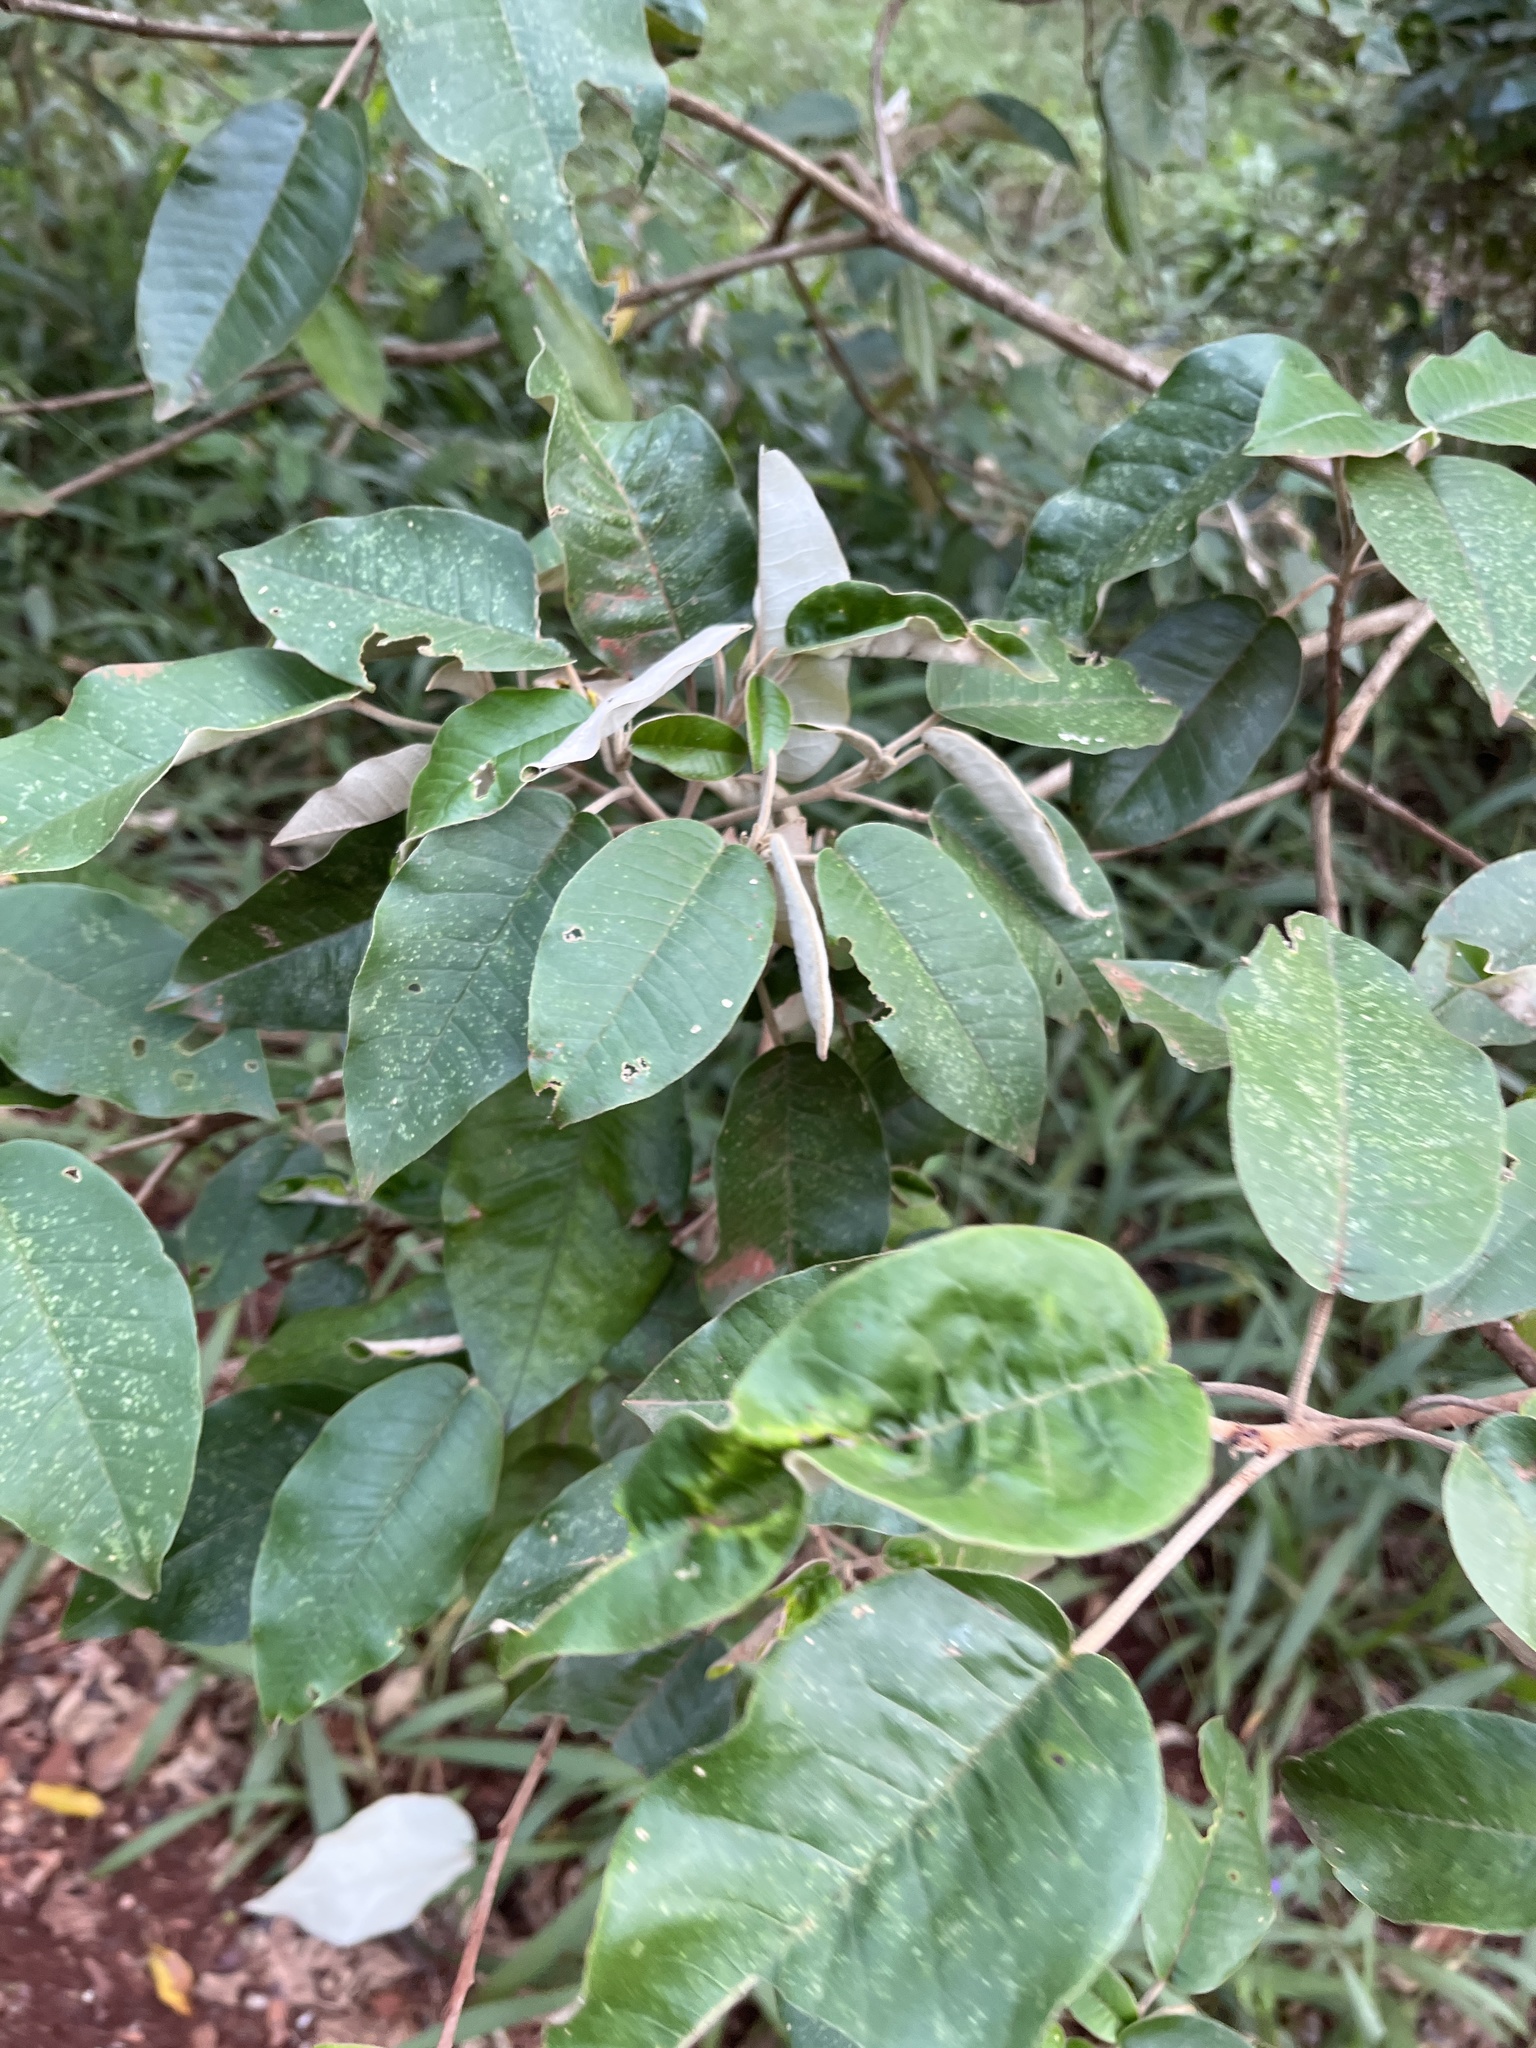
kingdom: Plantae
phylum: Tracheophyta
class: Magnoliopsida
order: Malpighiales
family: Euphorbiaceae
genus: Croton
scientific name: Croton megalocarpus
